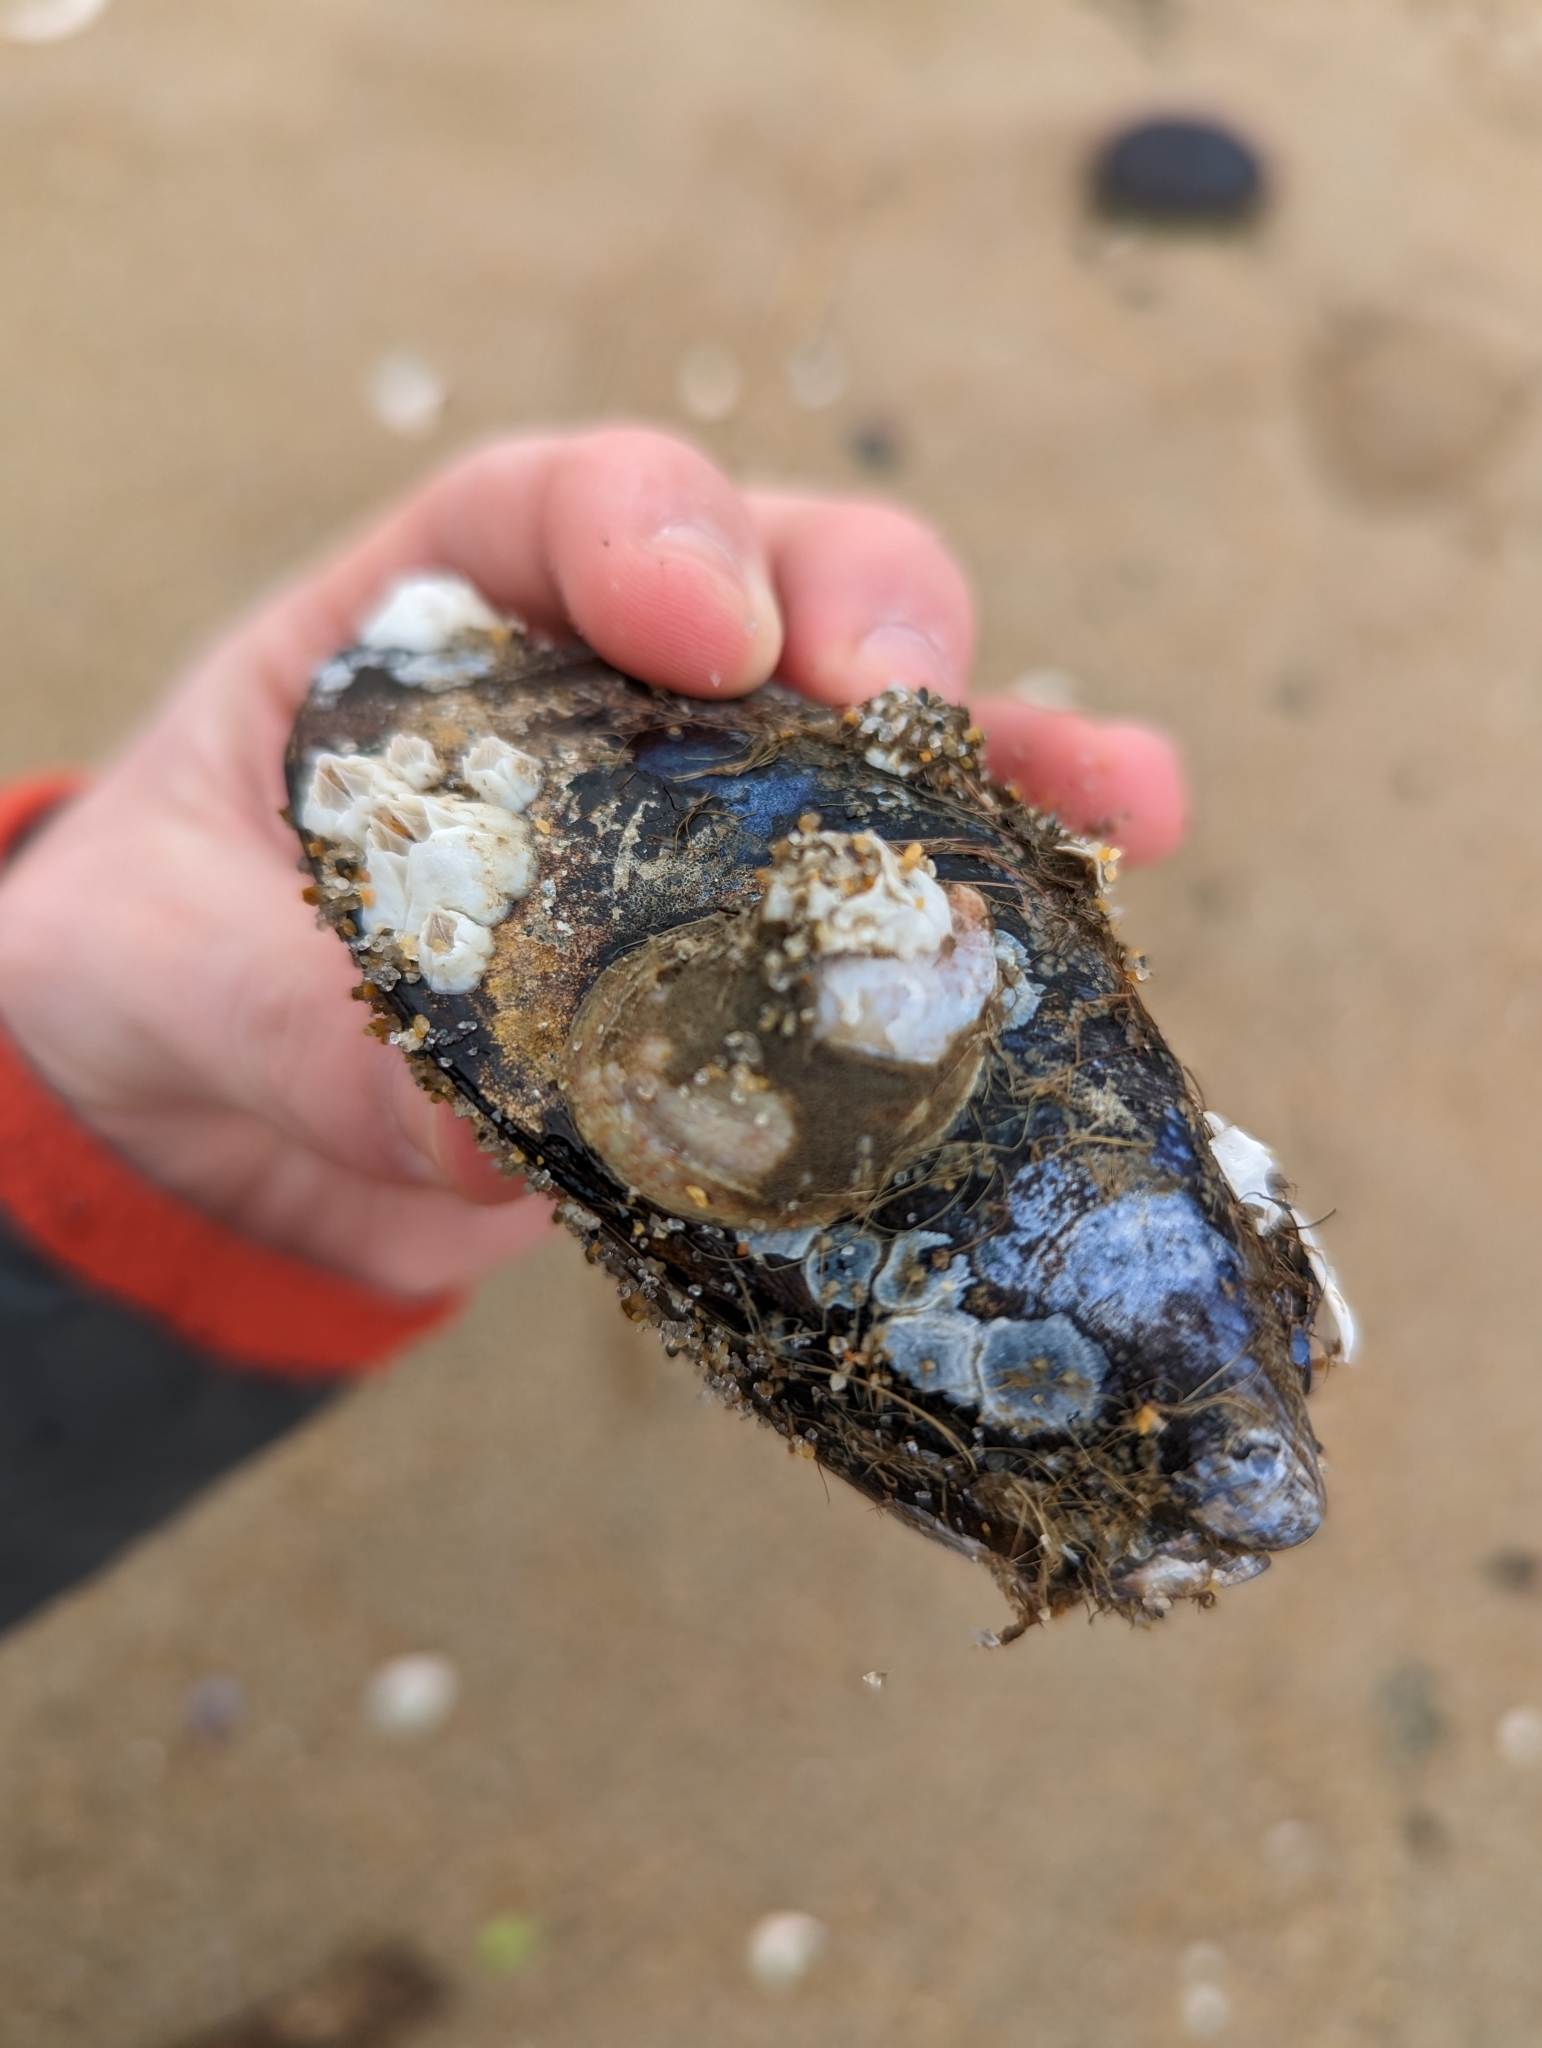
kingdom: Animalia
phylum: Mollusca
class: Bivalvia
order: Mytilida
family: Mytilidae
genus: Mytilus
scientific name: Mytilus edulis
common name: Blue mussel
